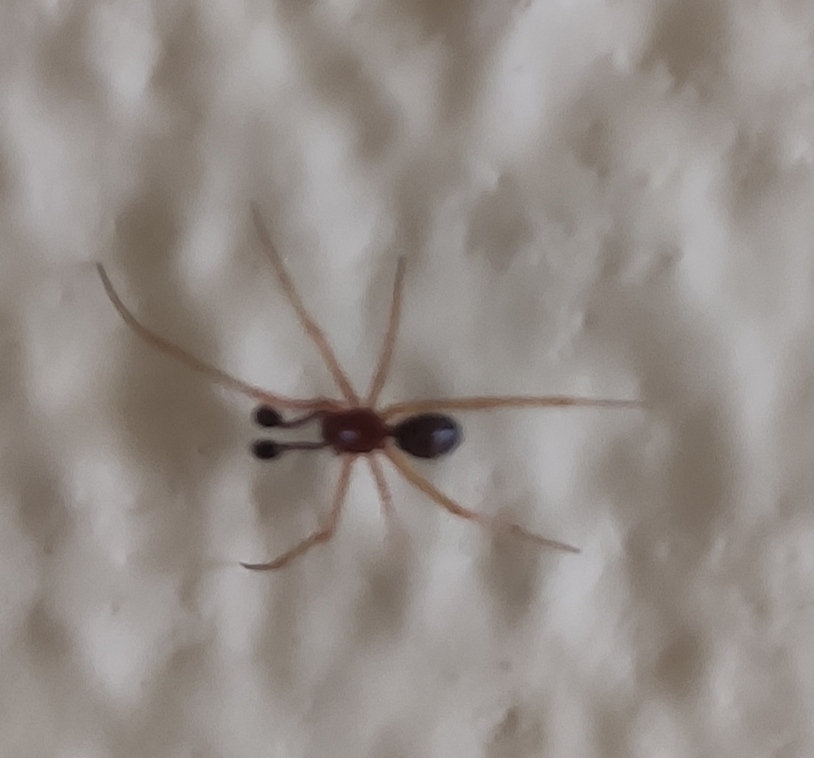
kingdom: Animalia
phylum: Arthropoda
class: Arachnida
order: Araneae
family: Theridiidae
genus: Neottiura
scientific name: Neottiura bimaculata
